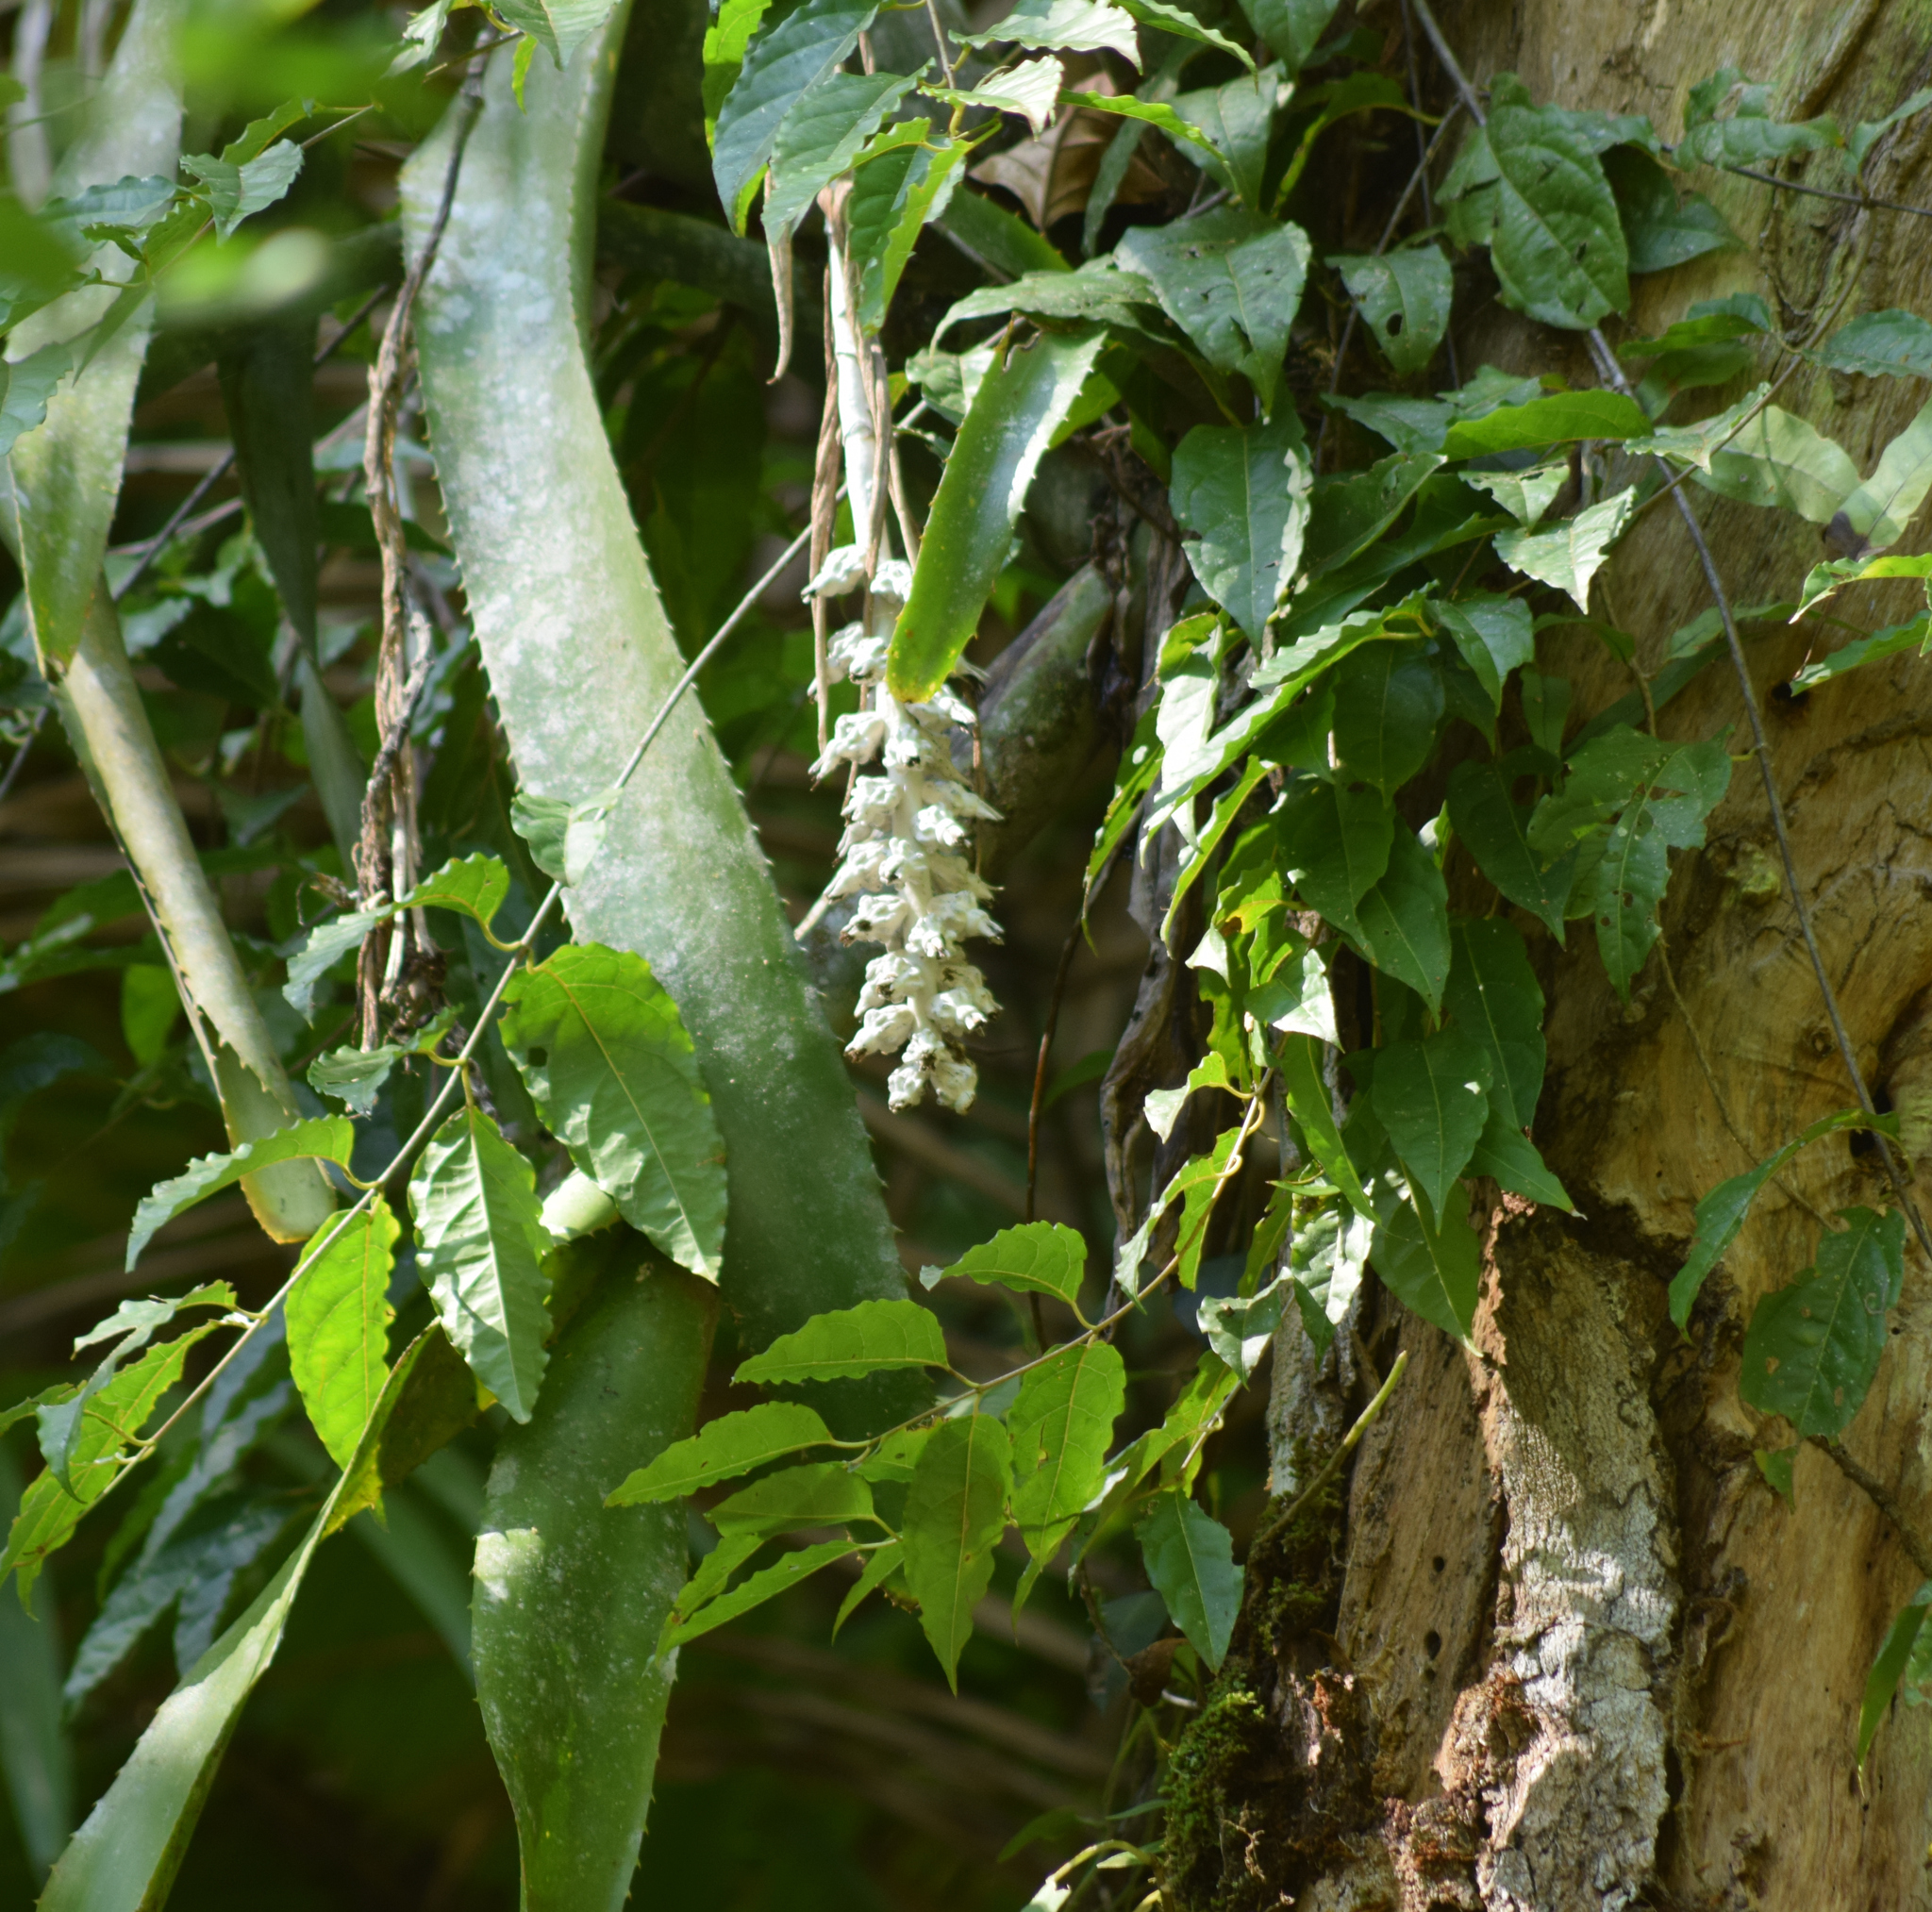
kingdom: Plantae
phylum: Tracheophyta
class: Liliopsida
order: Poales
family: Bromeliaceae
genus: Billbergia
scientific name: Billbergia zebrina
